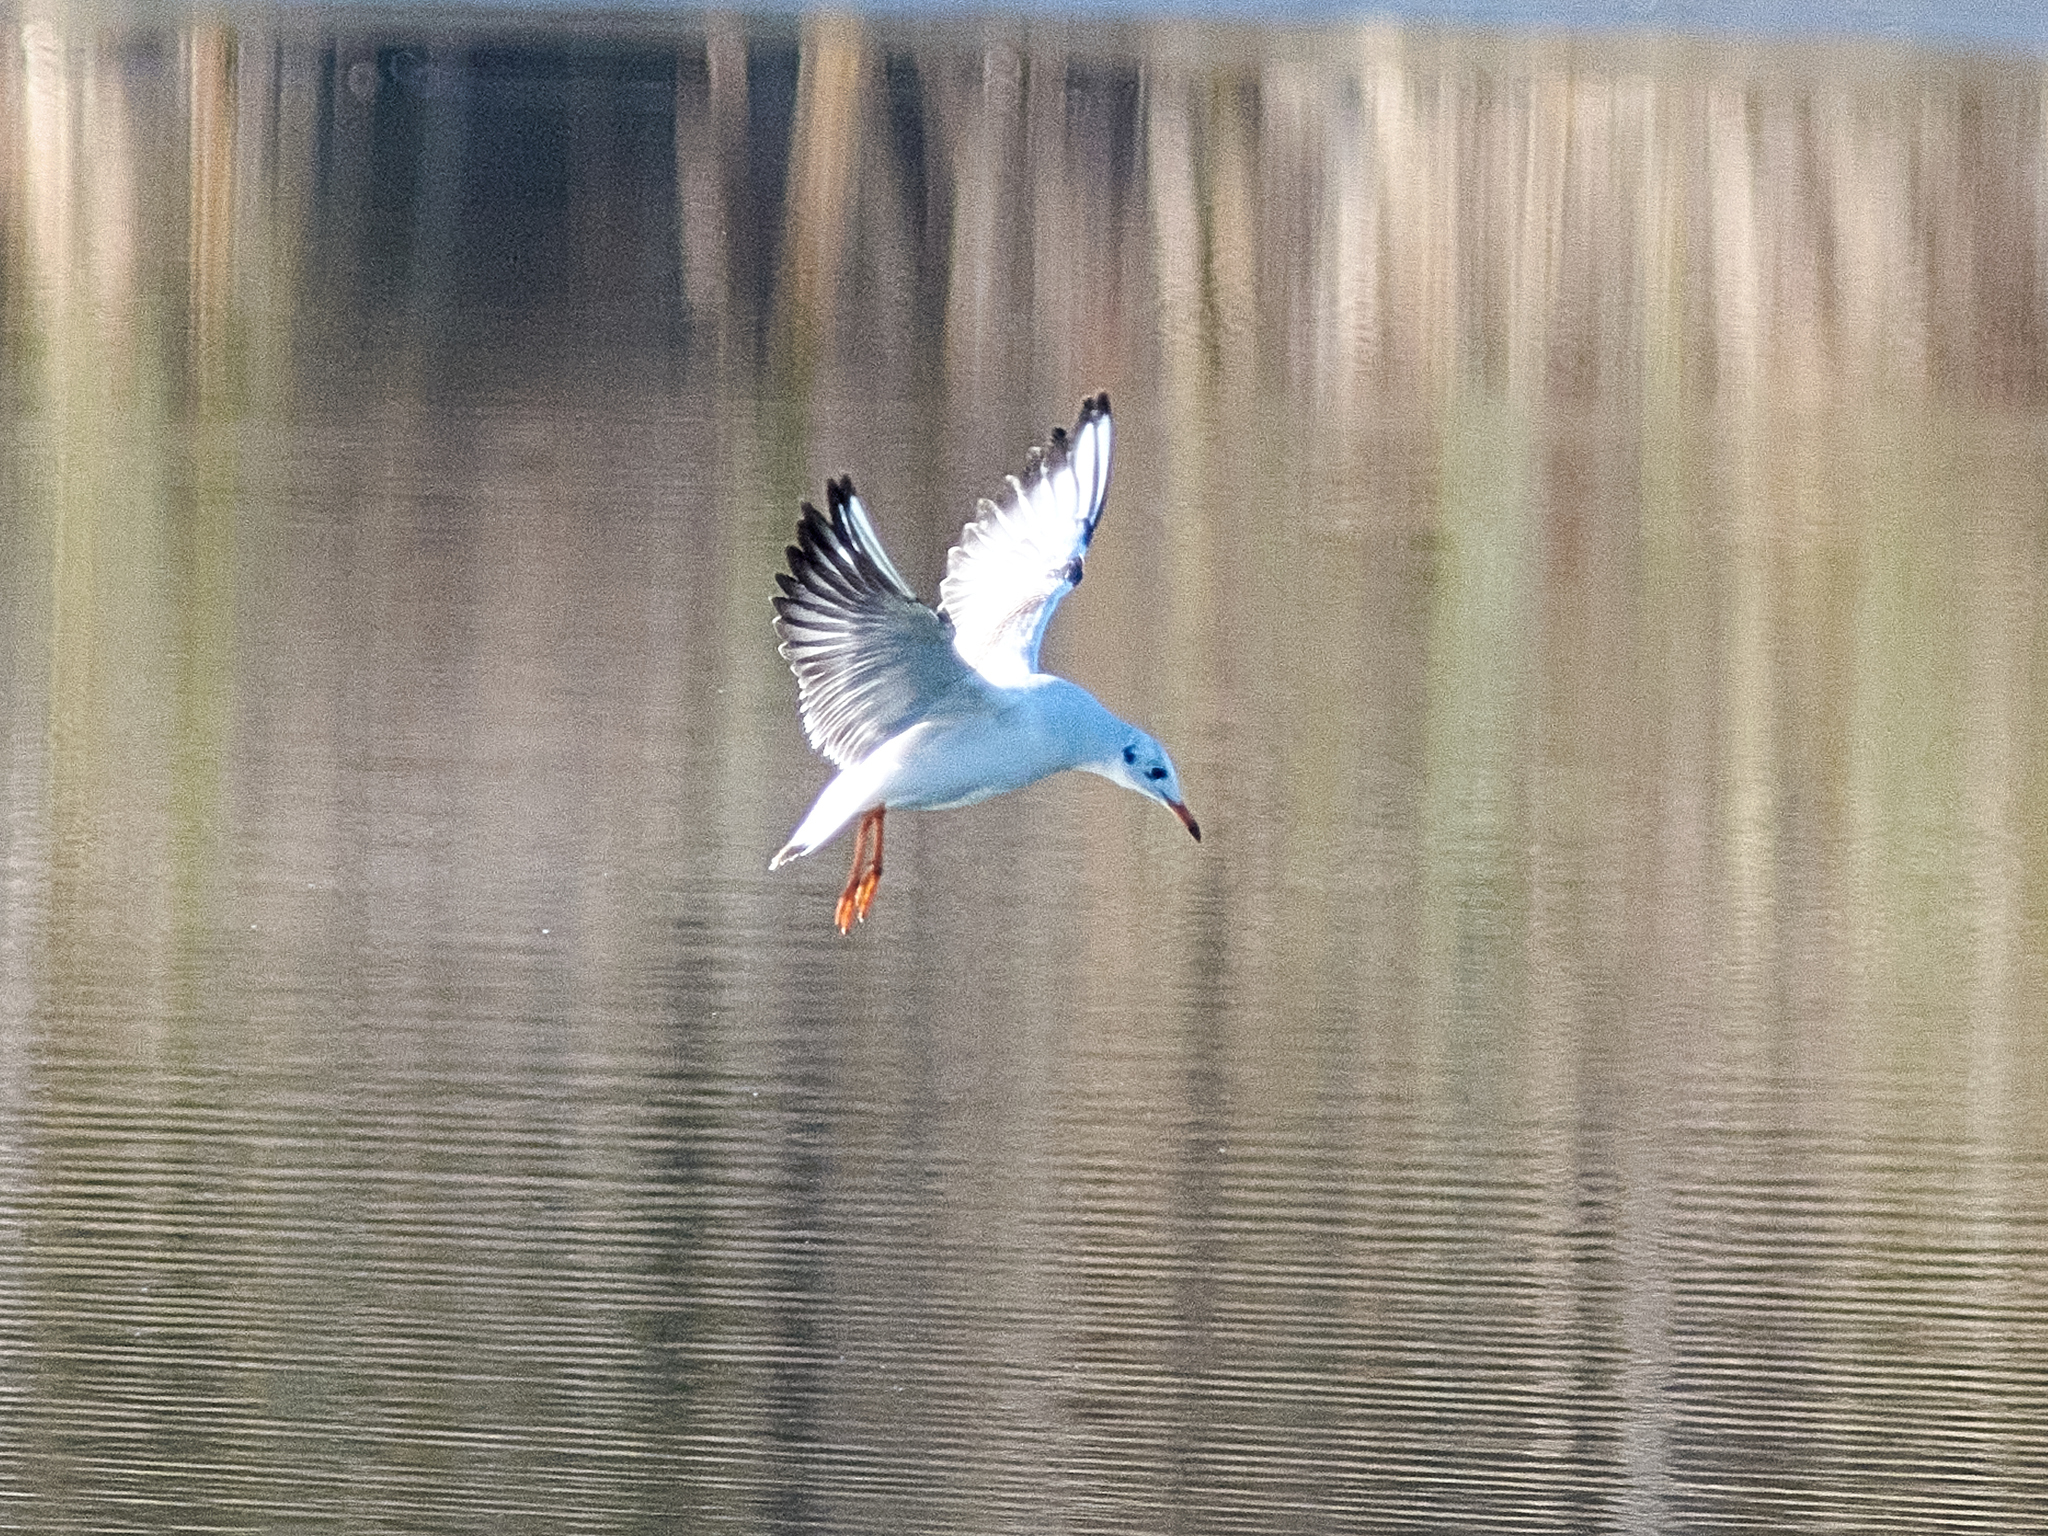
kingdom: Animalia
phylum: Chordata
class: Aves
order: Charadriiformes
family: Laridae
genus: Chroicocephalus
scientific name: Chroicocephalus ridibundus
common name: Black-headed gull
